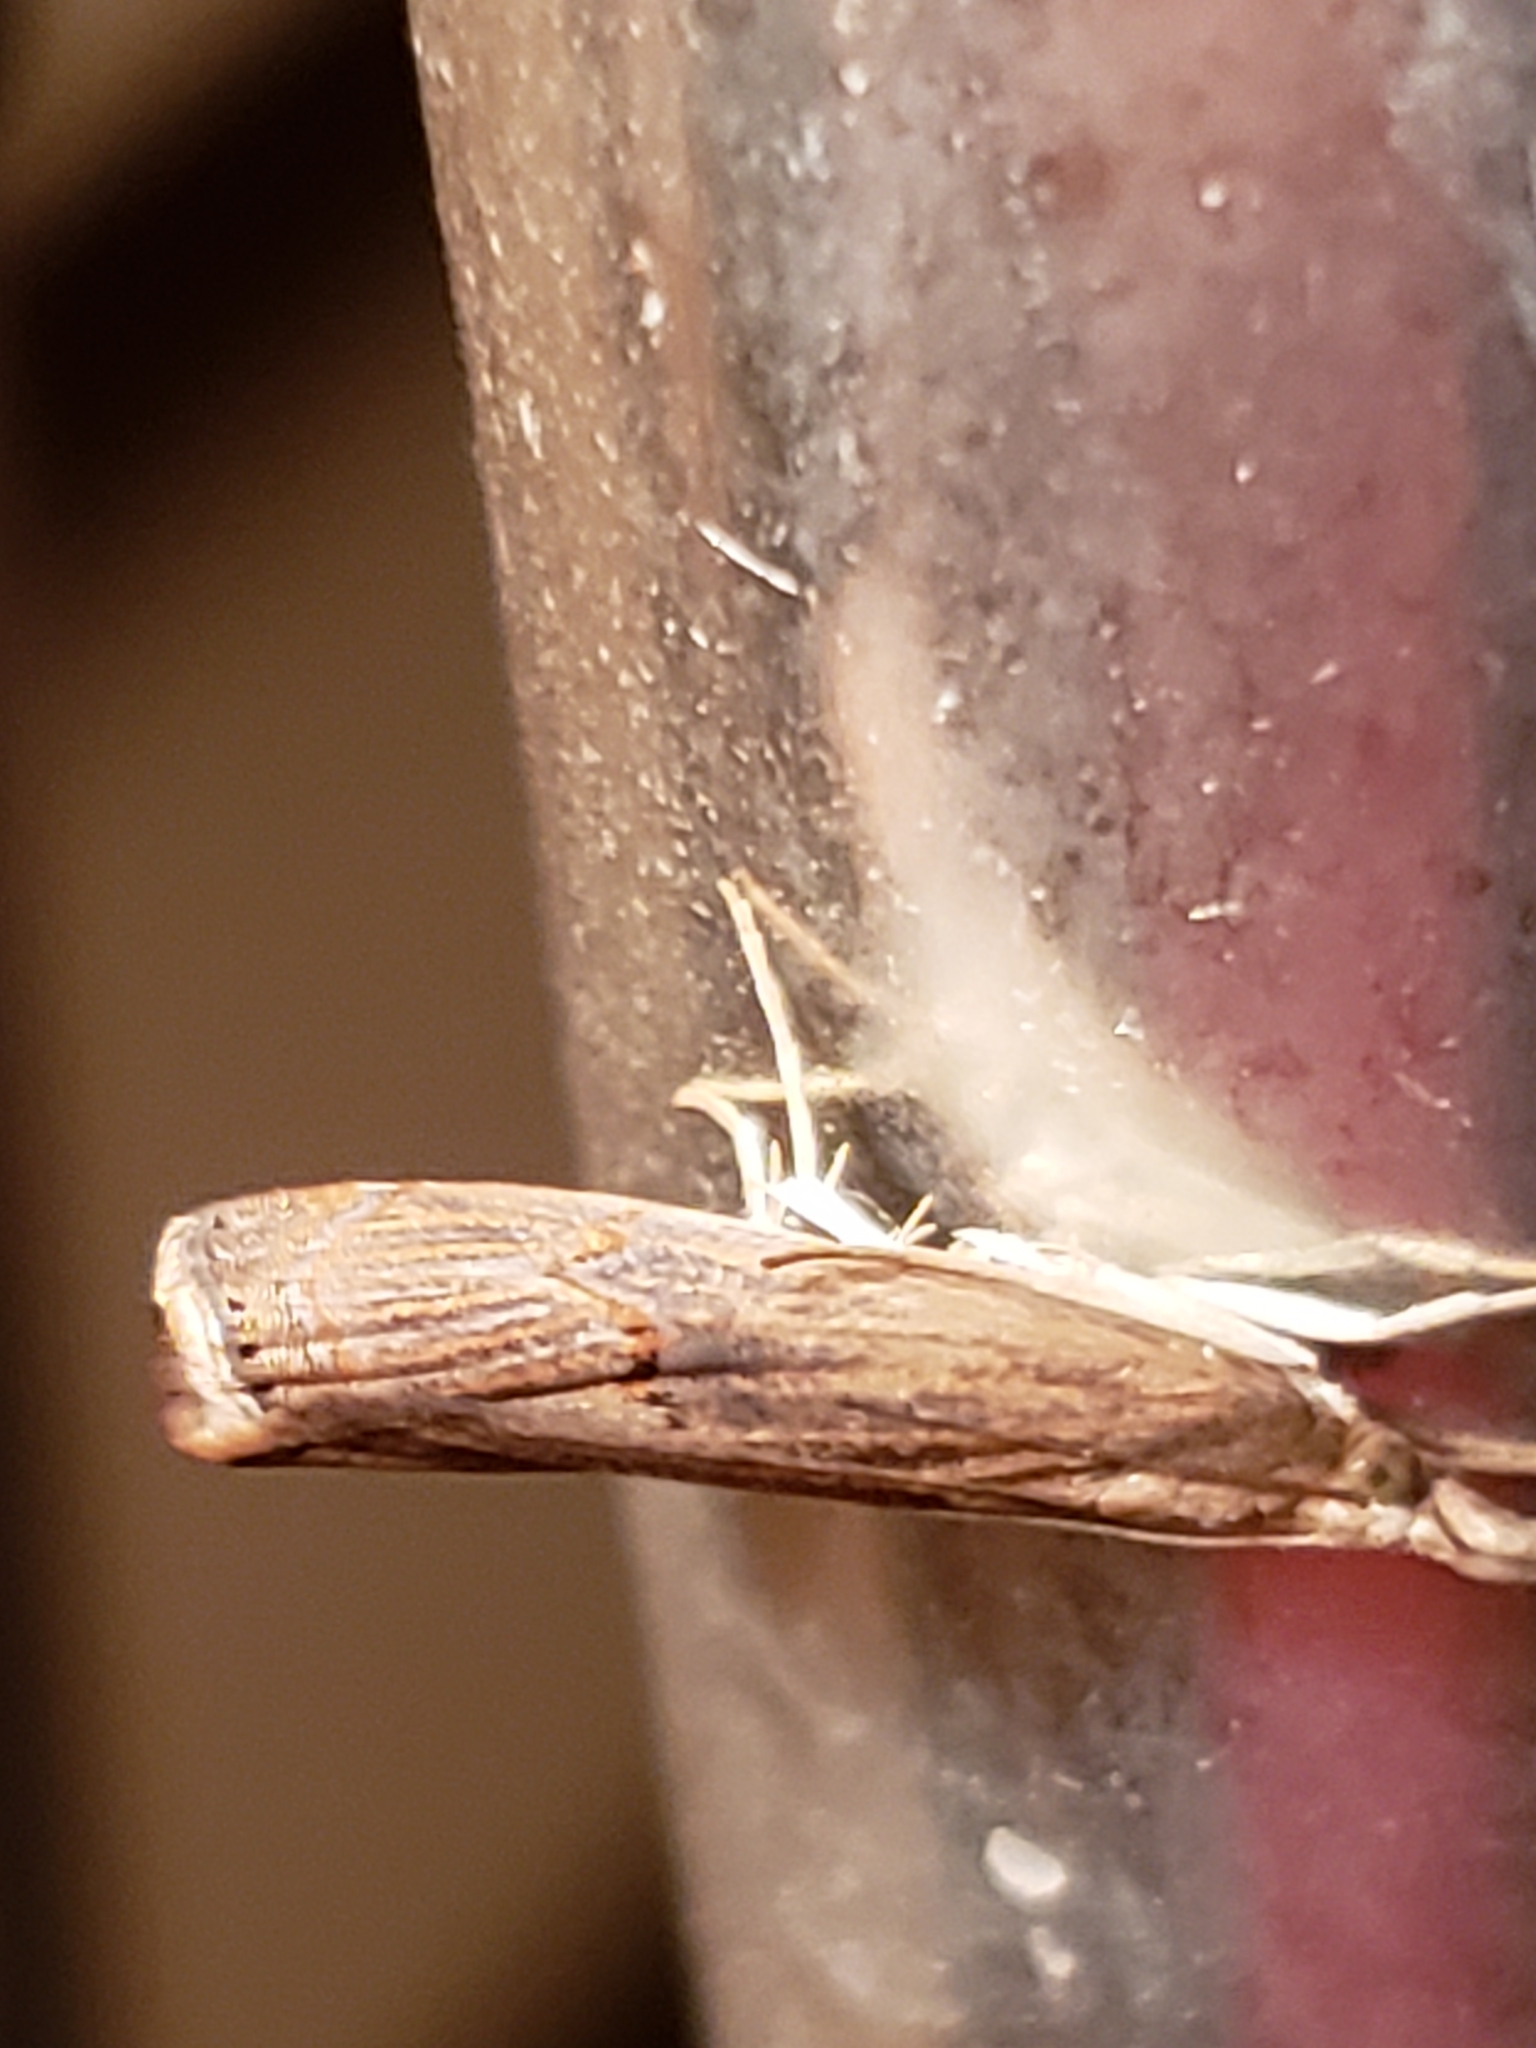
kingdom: Animalia
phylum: Arthropoda
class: Insecta
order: Lepidoptera
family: Crambidae
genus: Parapediasia
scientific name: Parapediasia teterellus
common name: Bluegrass webworm moth
